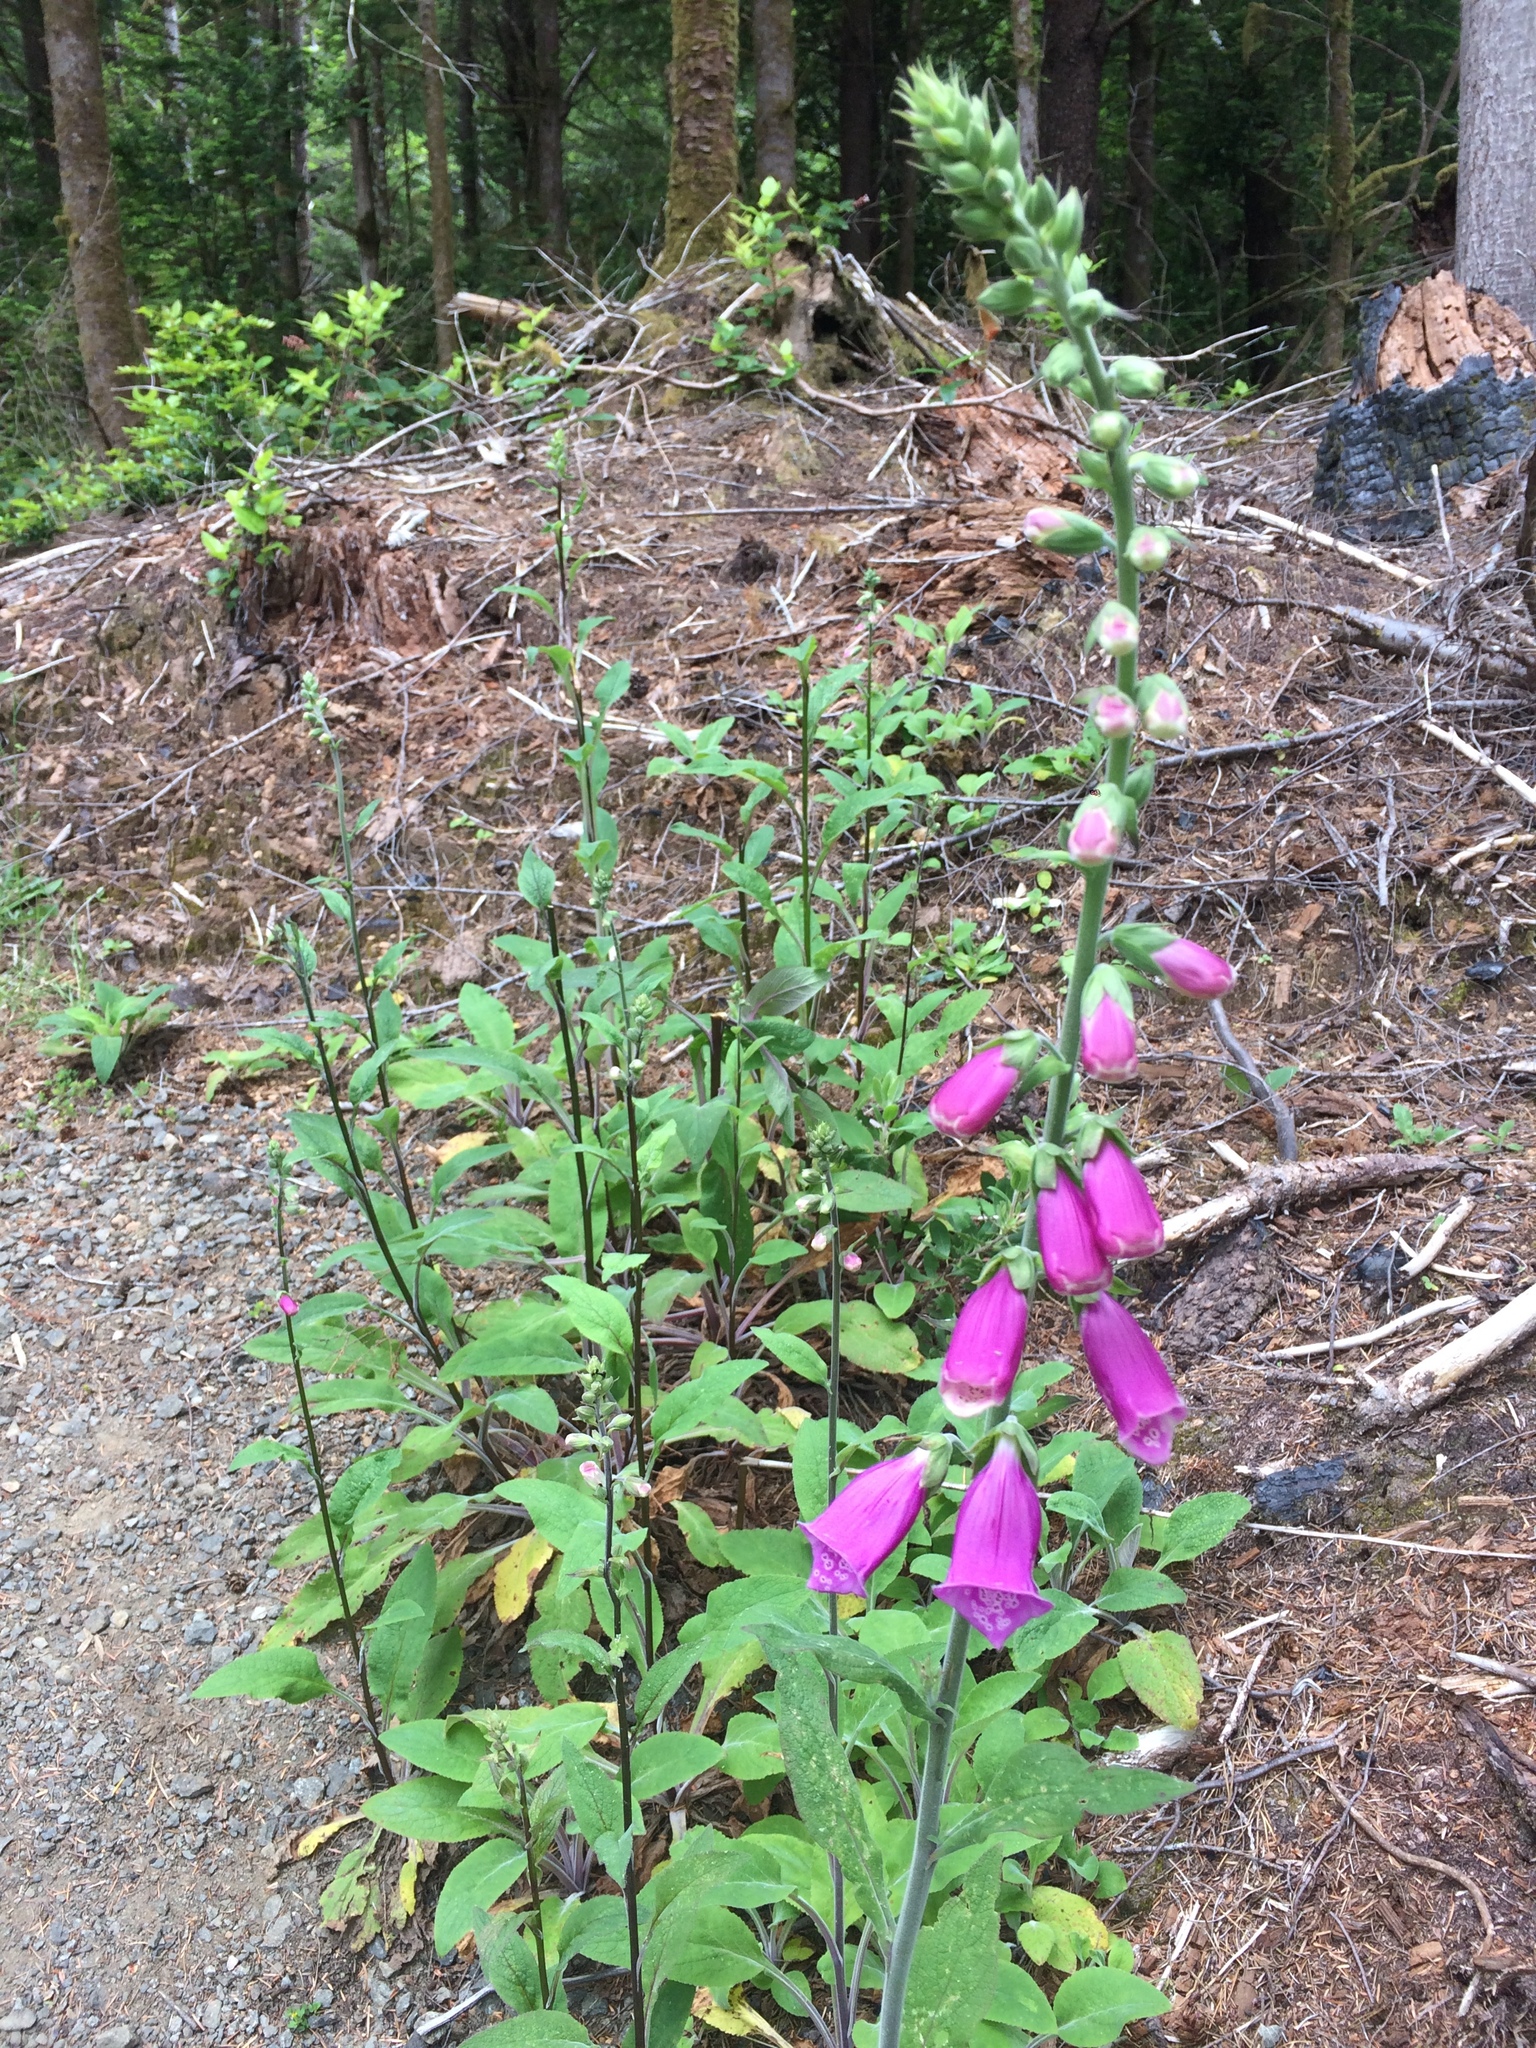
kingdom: Plantae
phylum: Tracheophyta
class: Magnoliopsida
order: Lamiales
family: Plantaginaceae
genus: Digitalis
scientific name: Digitalis purpurea
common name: Foxglove
